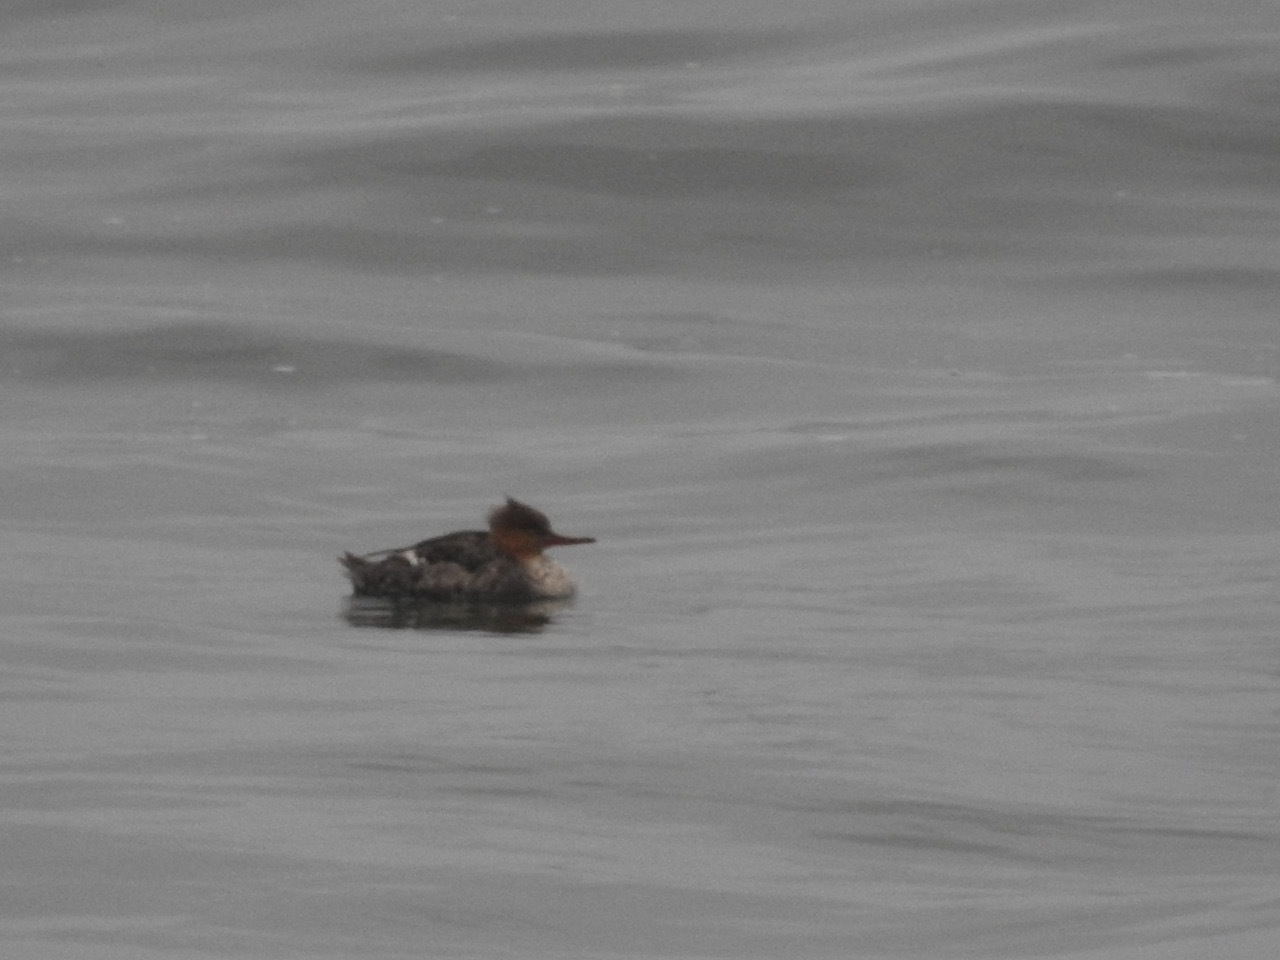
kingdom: Animalia
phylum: Chordata
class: Aves
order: Anseriformes
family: Anatidae
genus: Mergus
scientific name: Mergus serrator
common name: Red-breasted merganser
